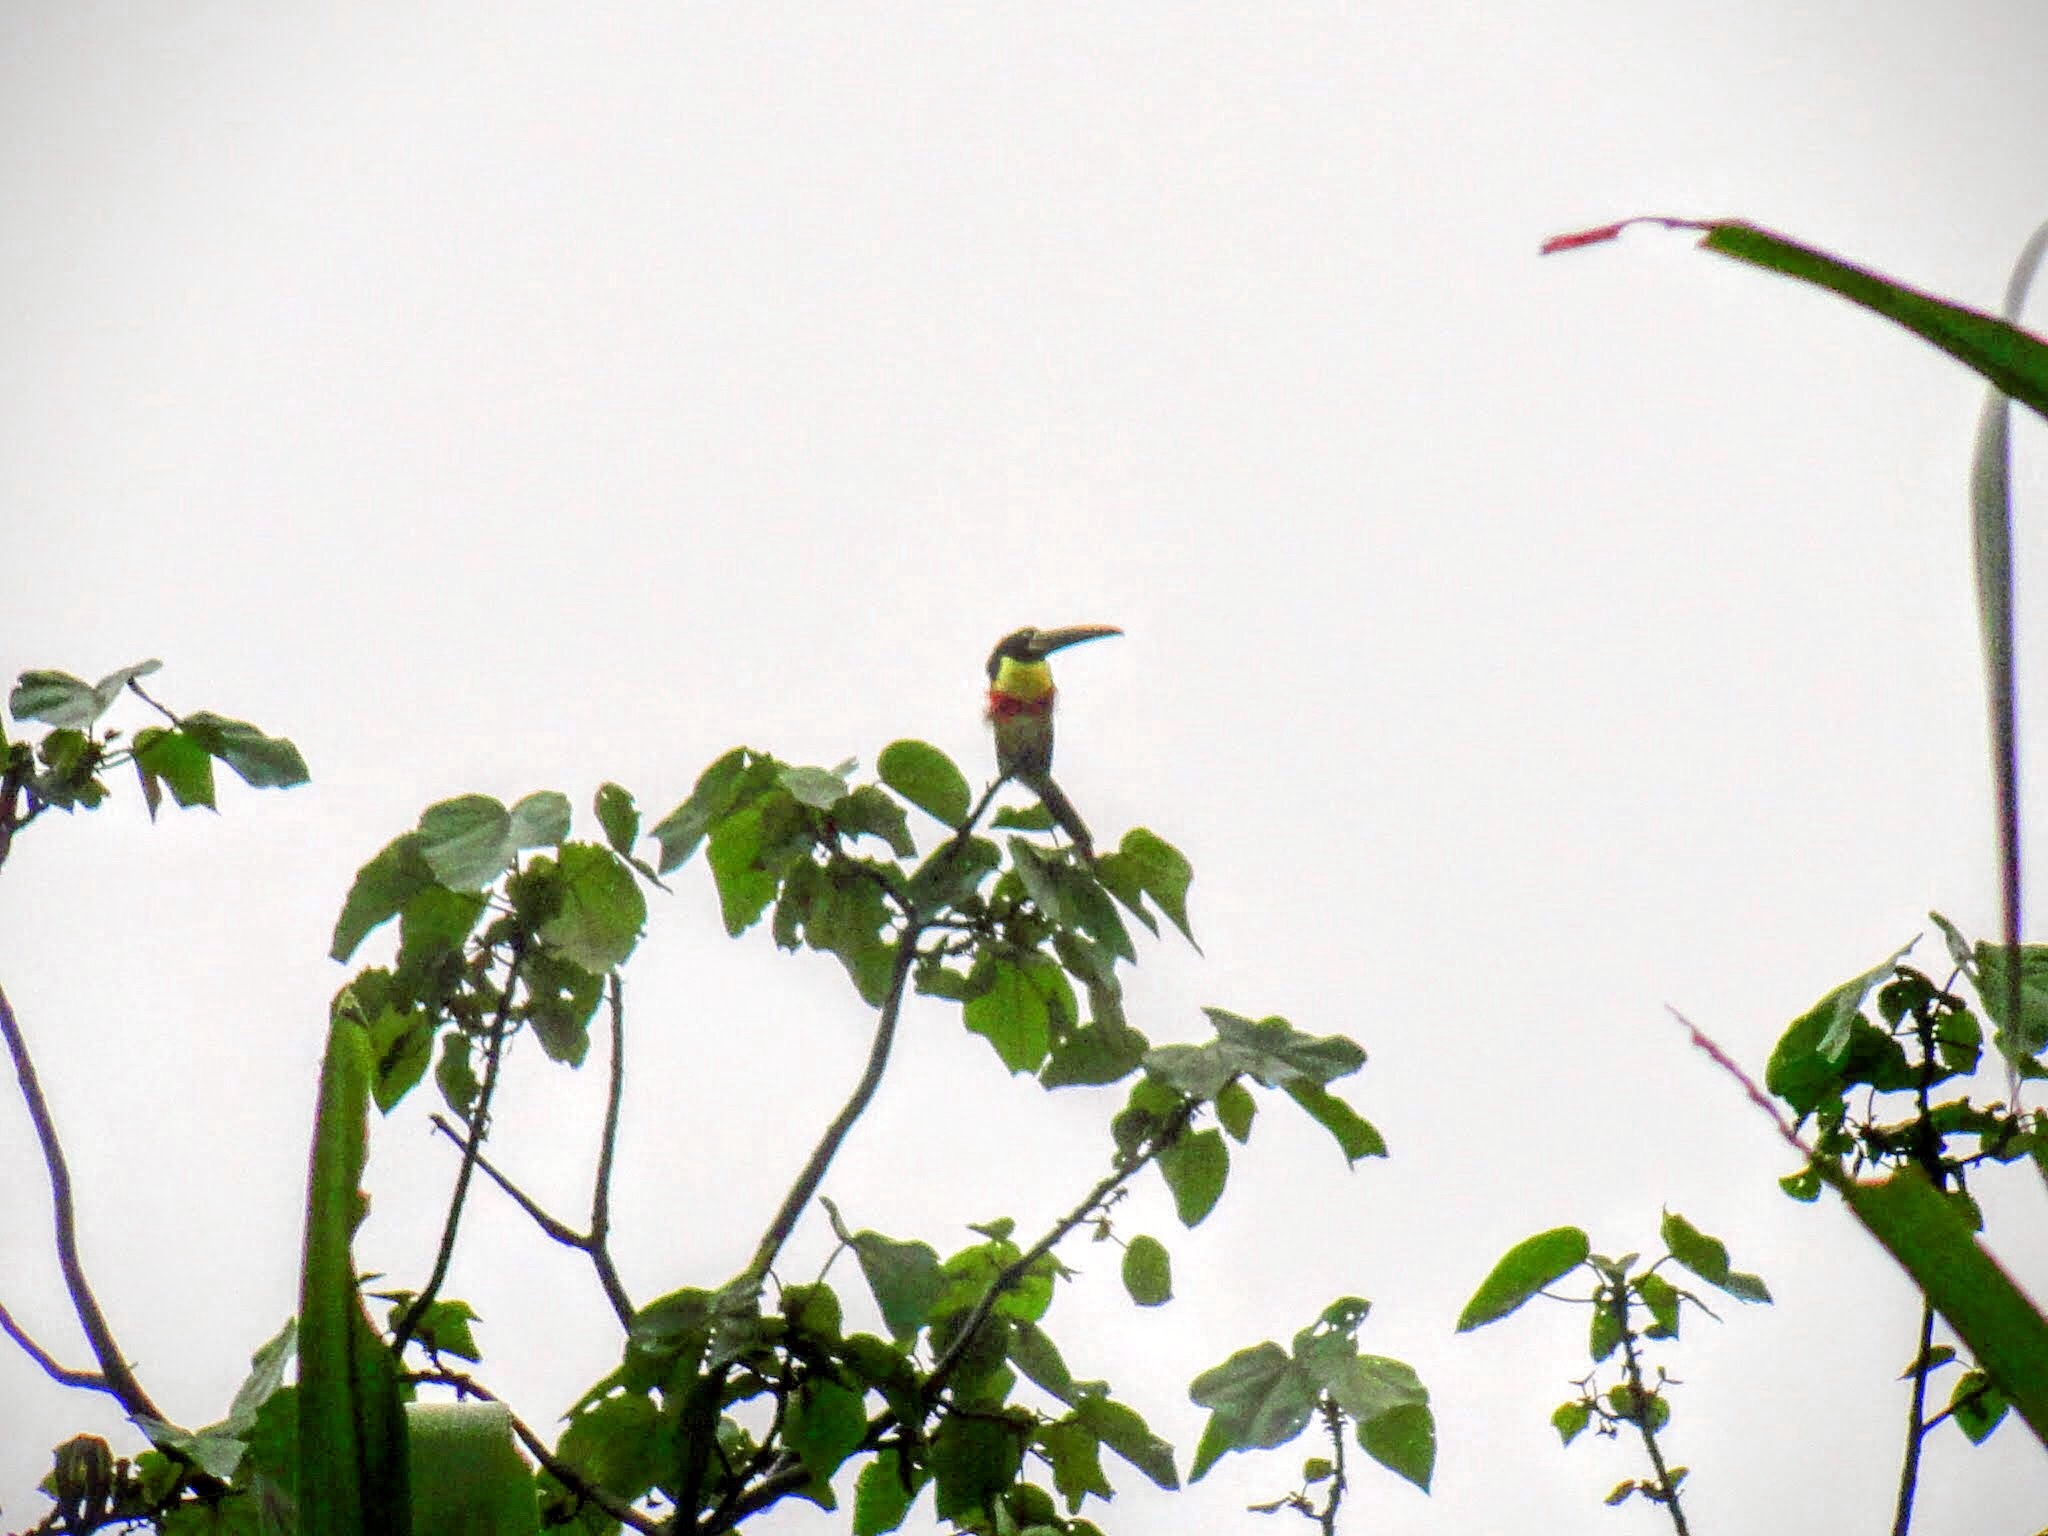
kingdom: Animalia
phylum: Chordata
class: Aves
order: Piciformes
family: Ramphastidae
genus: Pteroglossus
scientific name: Pteroglossus castanotis
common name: Chestnut-eared aracari
